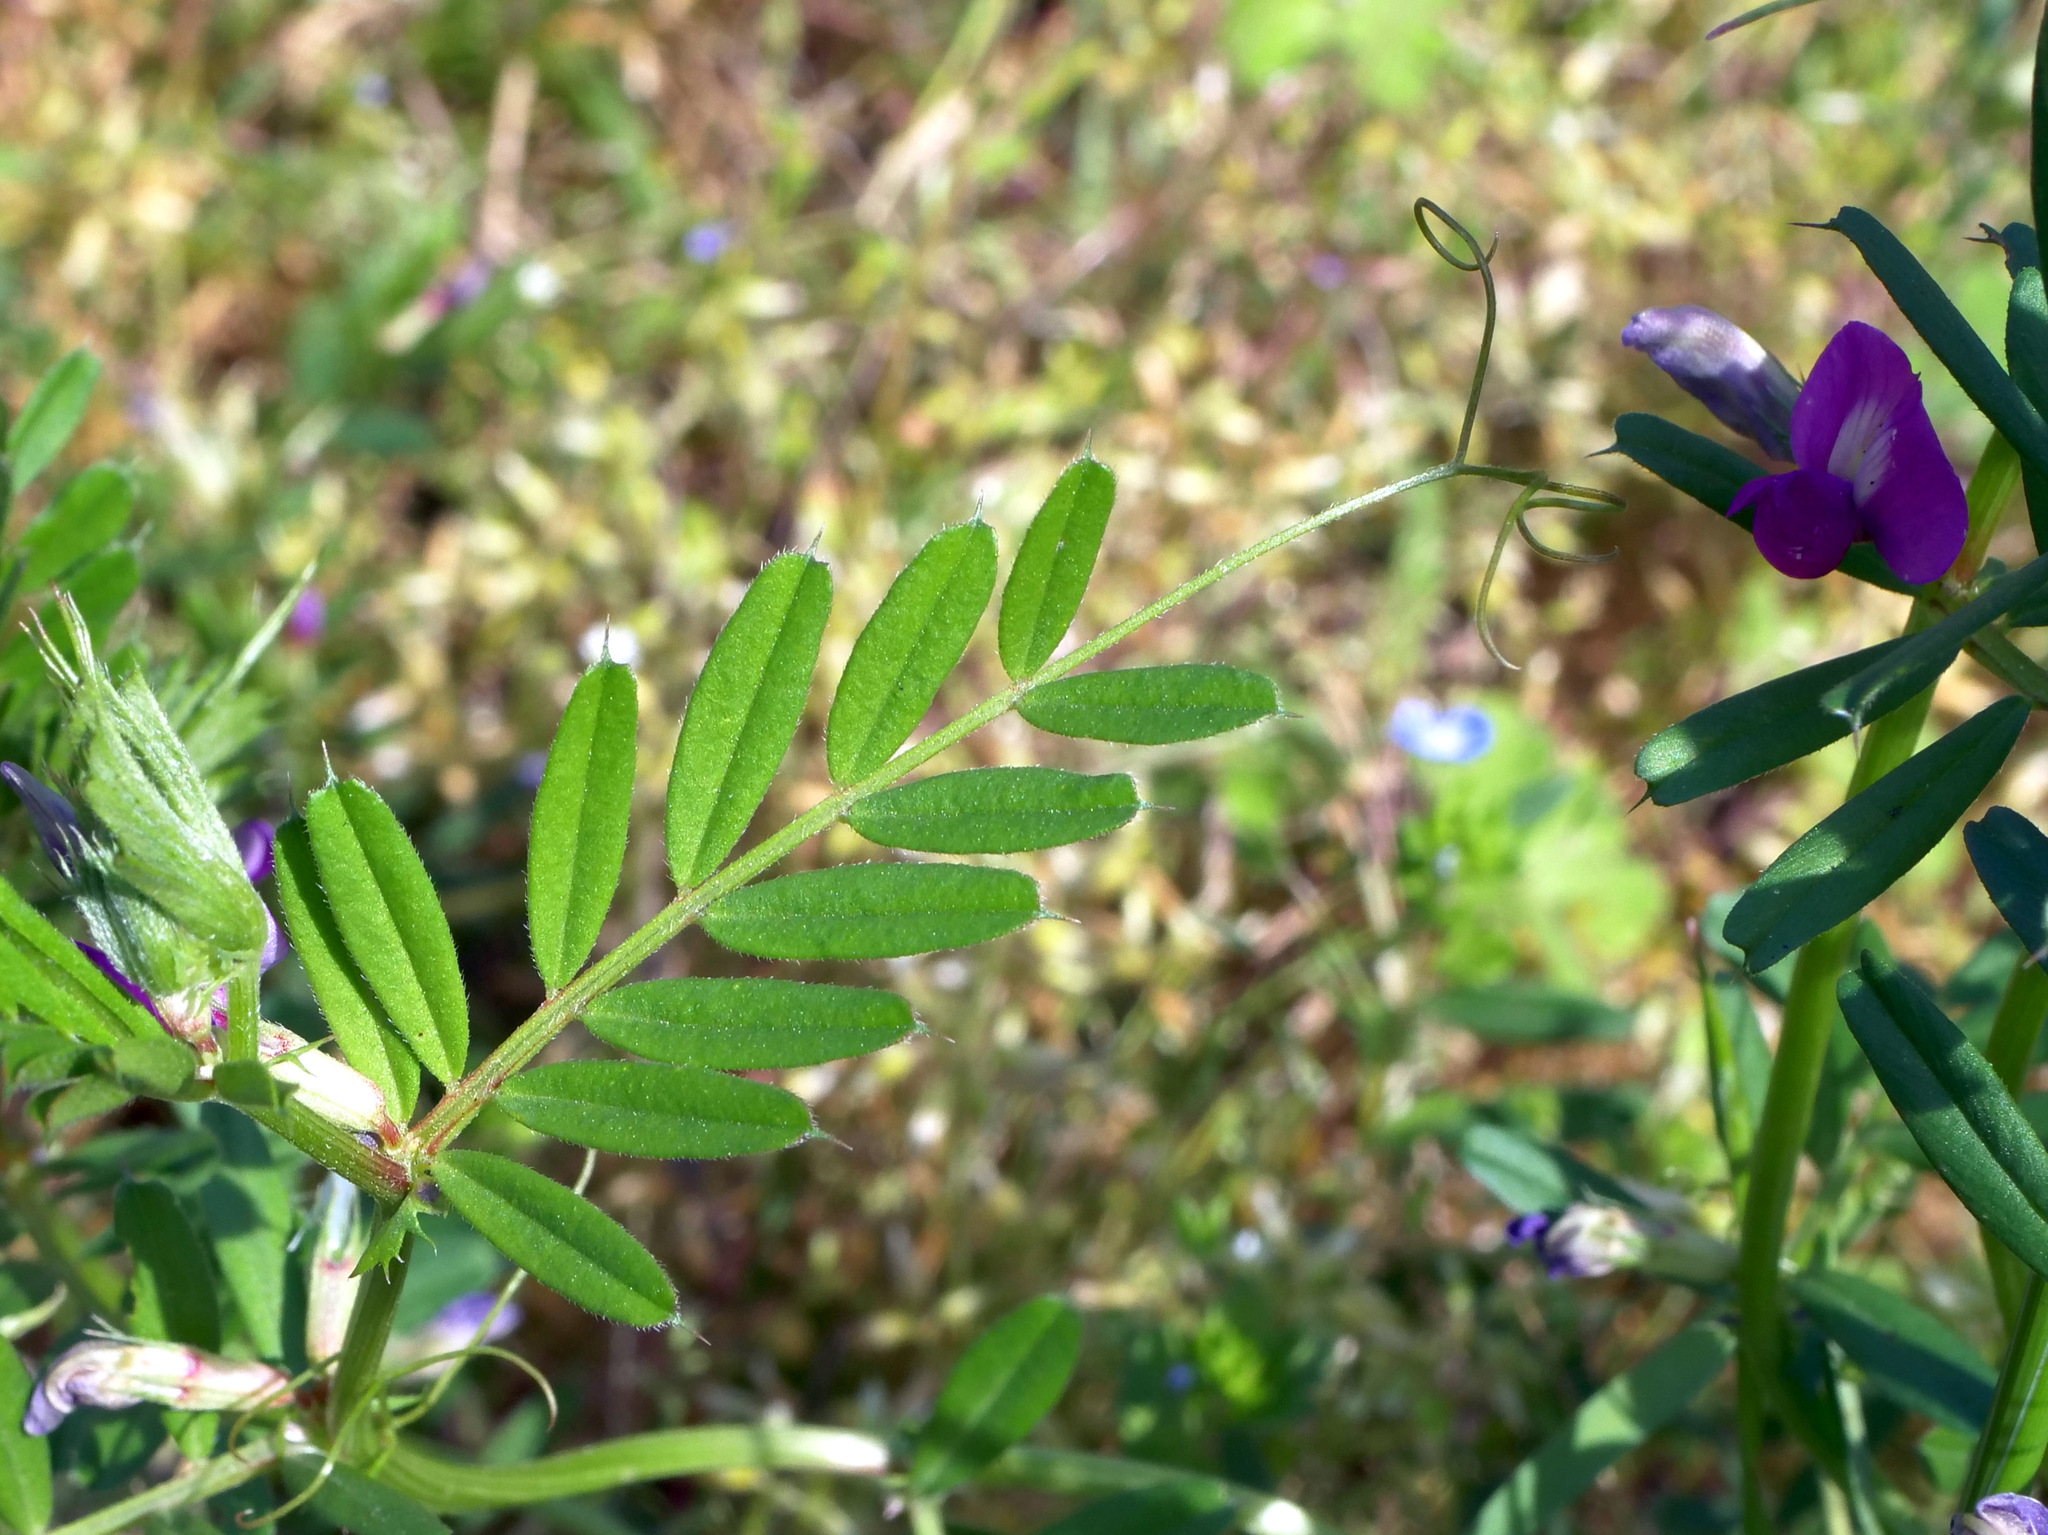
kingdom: Plantae
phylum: Tracheophyta
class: Magnoliopsida
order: Fabales
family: Fabaceae
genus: Vicia
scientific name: Vicia sativa
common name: Garden vetch
